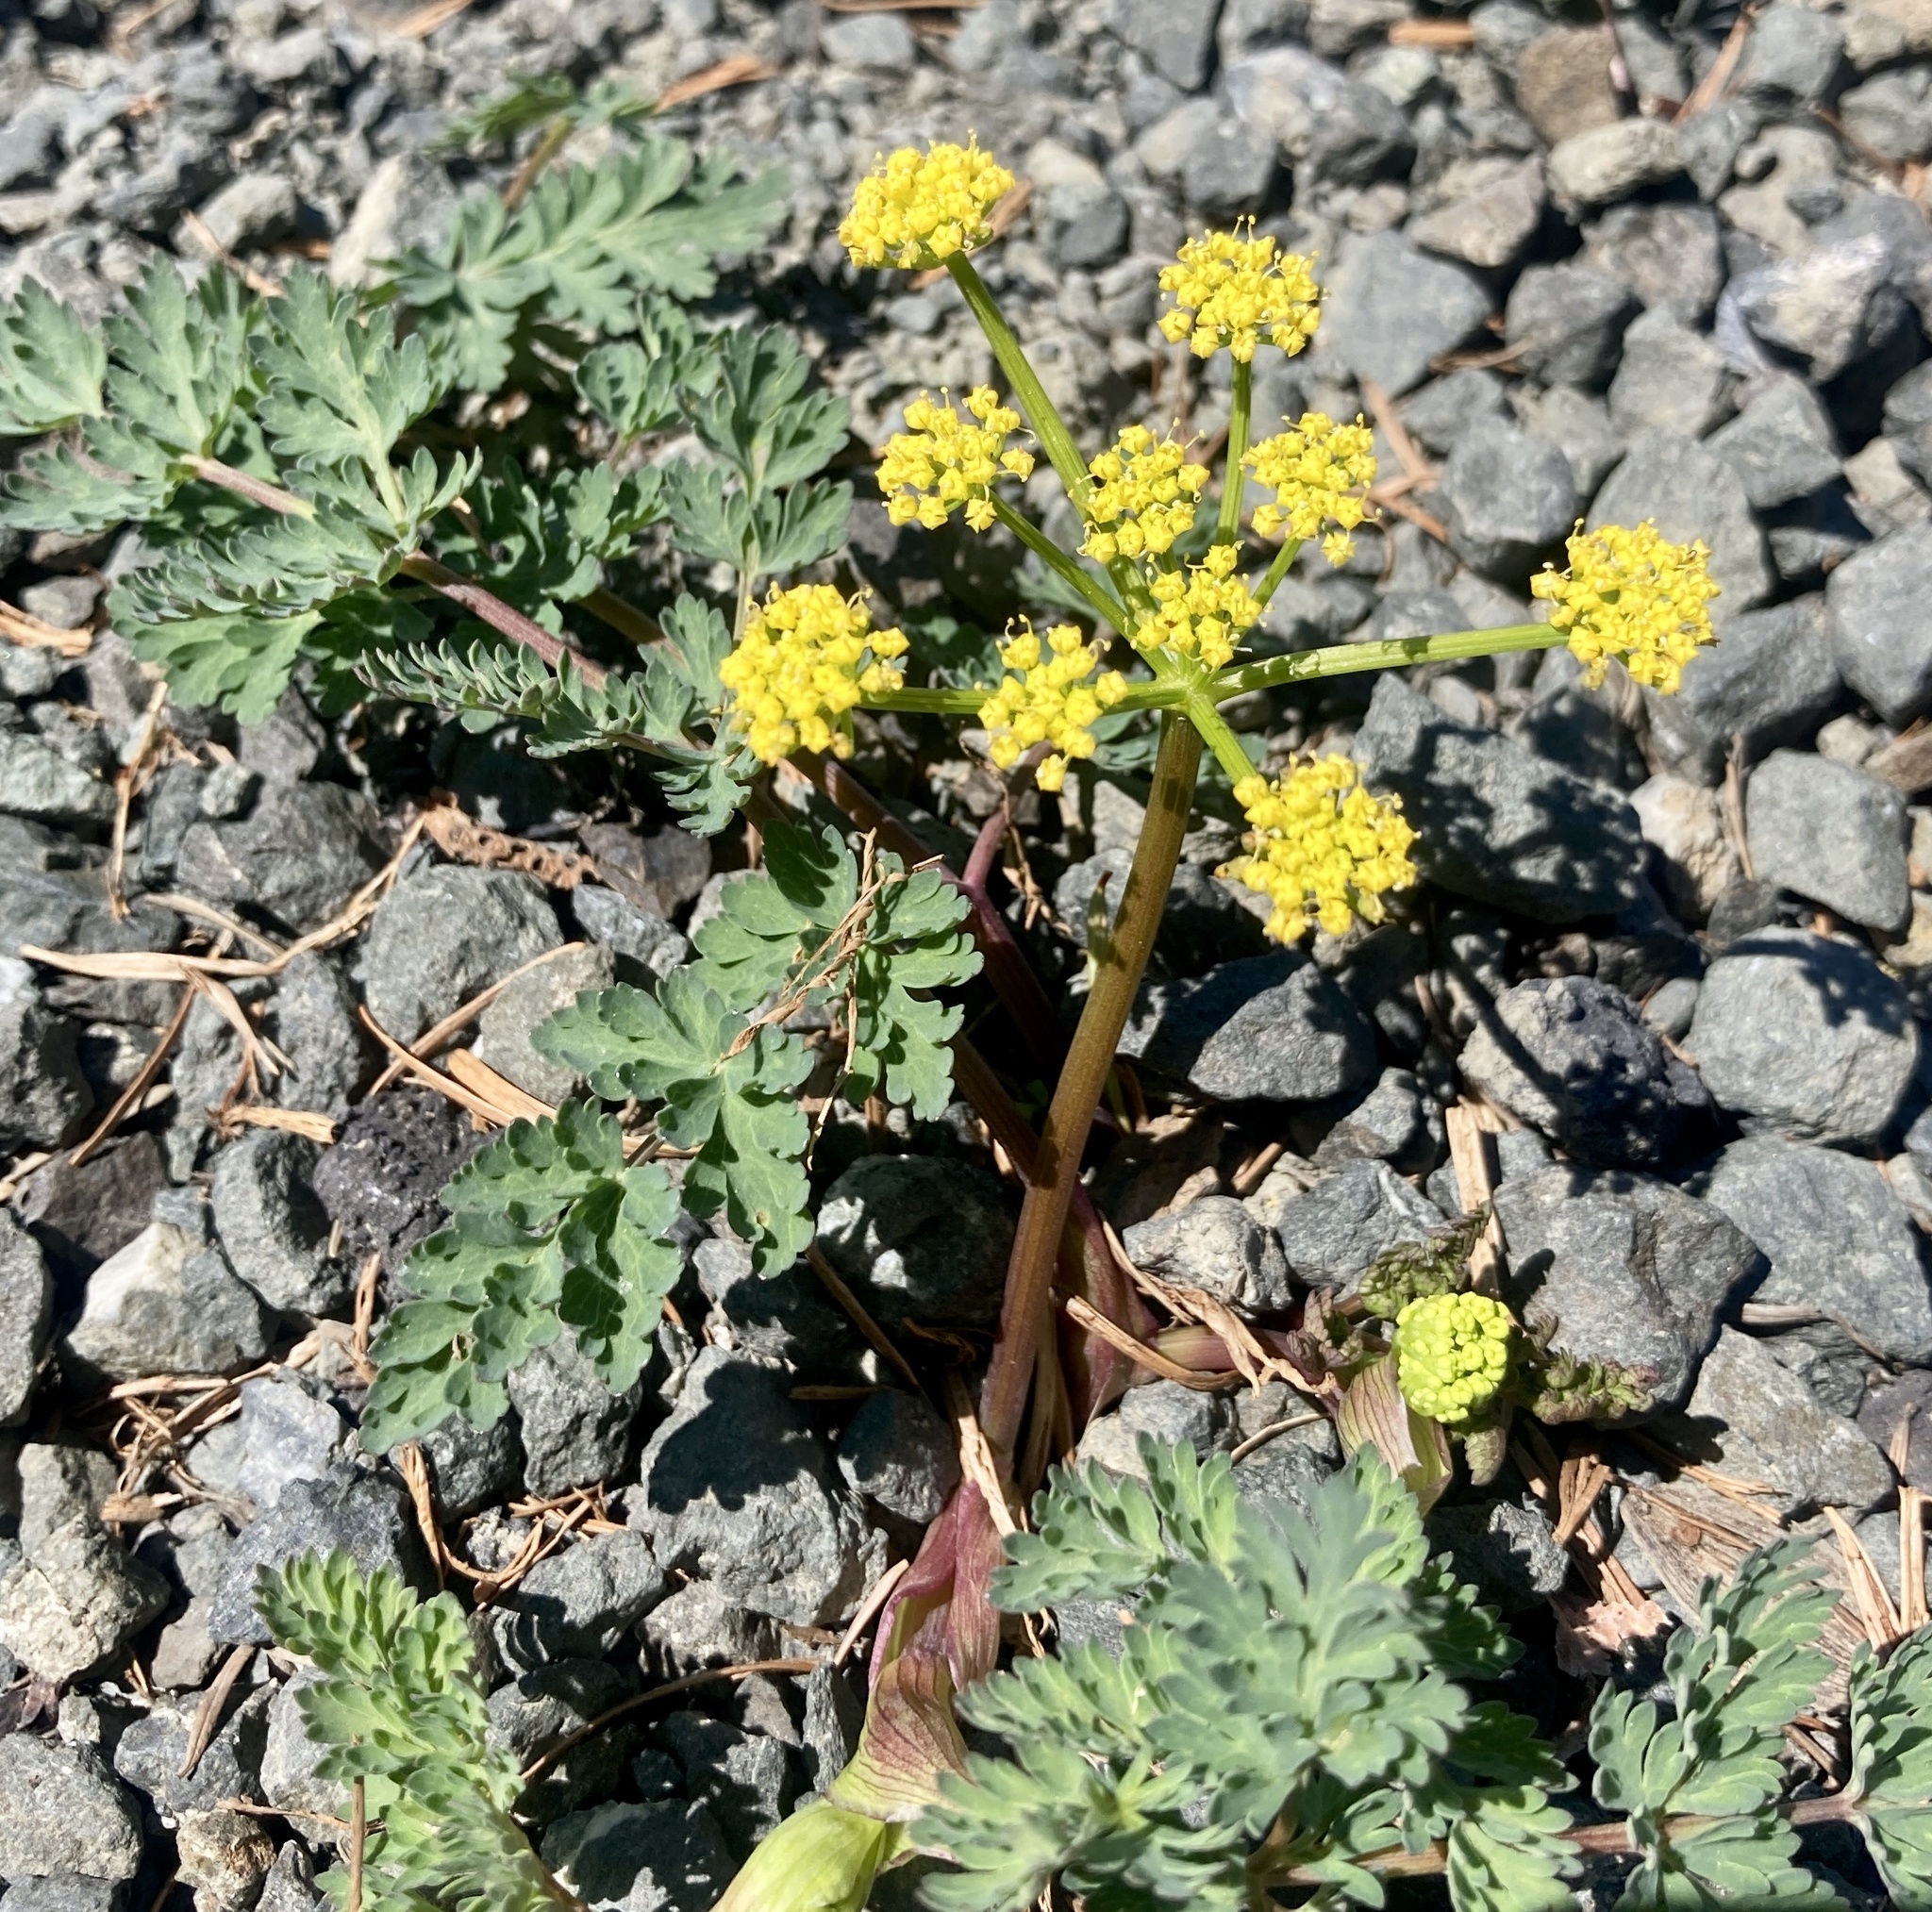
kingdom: Plantae
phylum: Tracheophyta
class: Magnoliopsida
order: Apiales
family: Apiaceae
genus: Lomatium
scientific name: Lomatium martindalei
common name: Cascade desert-parsley
